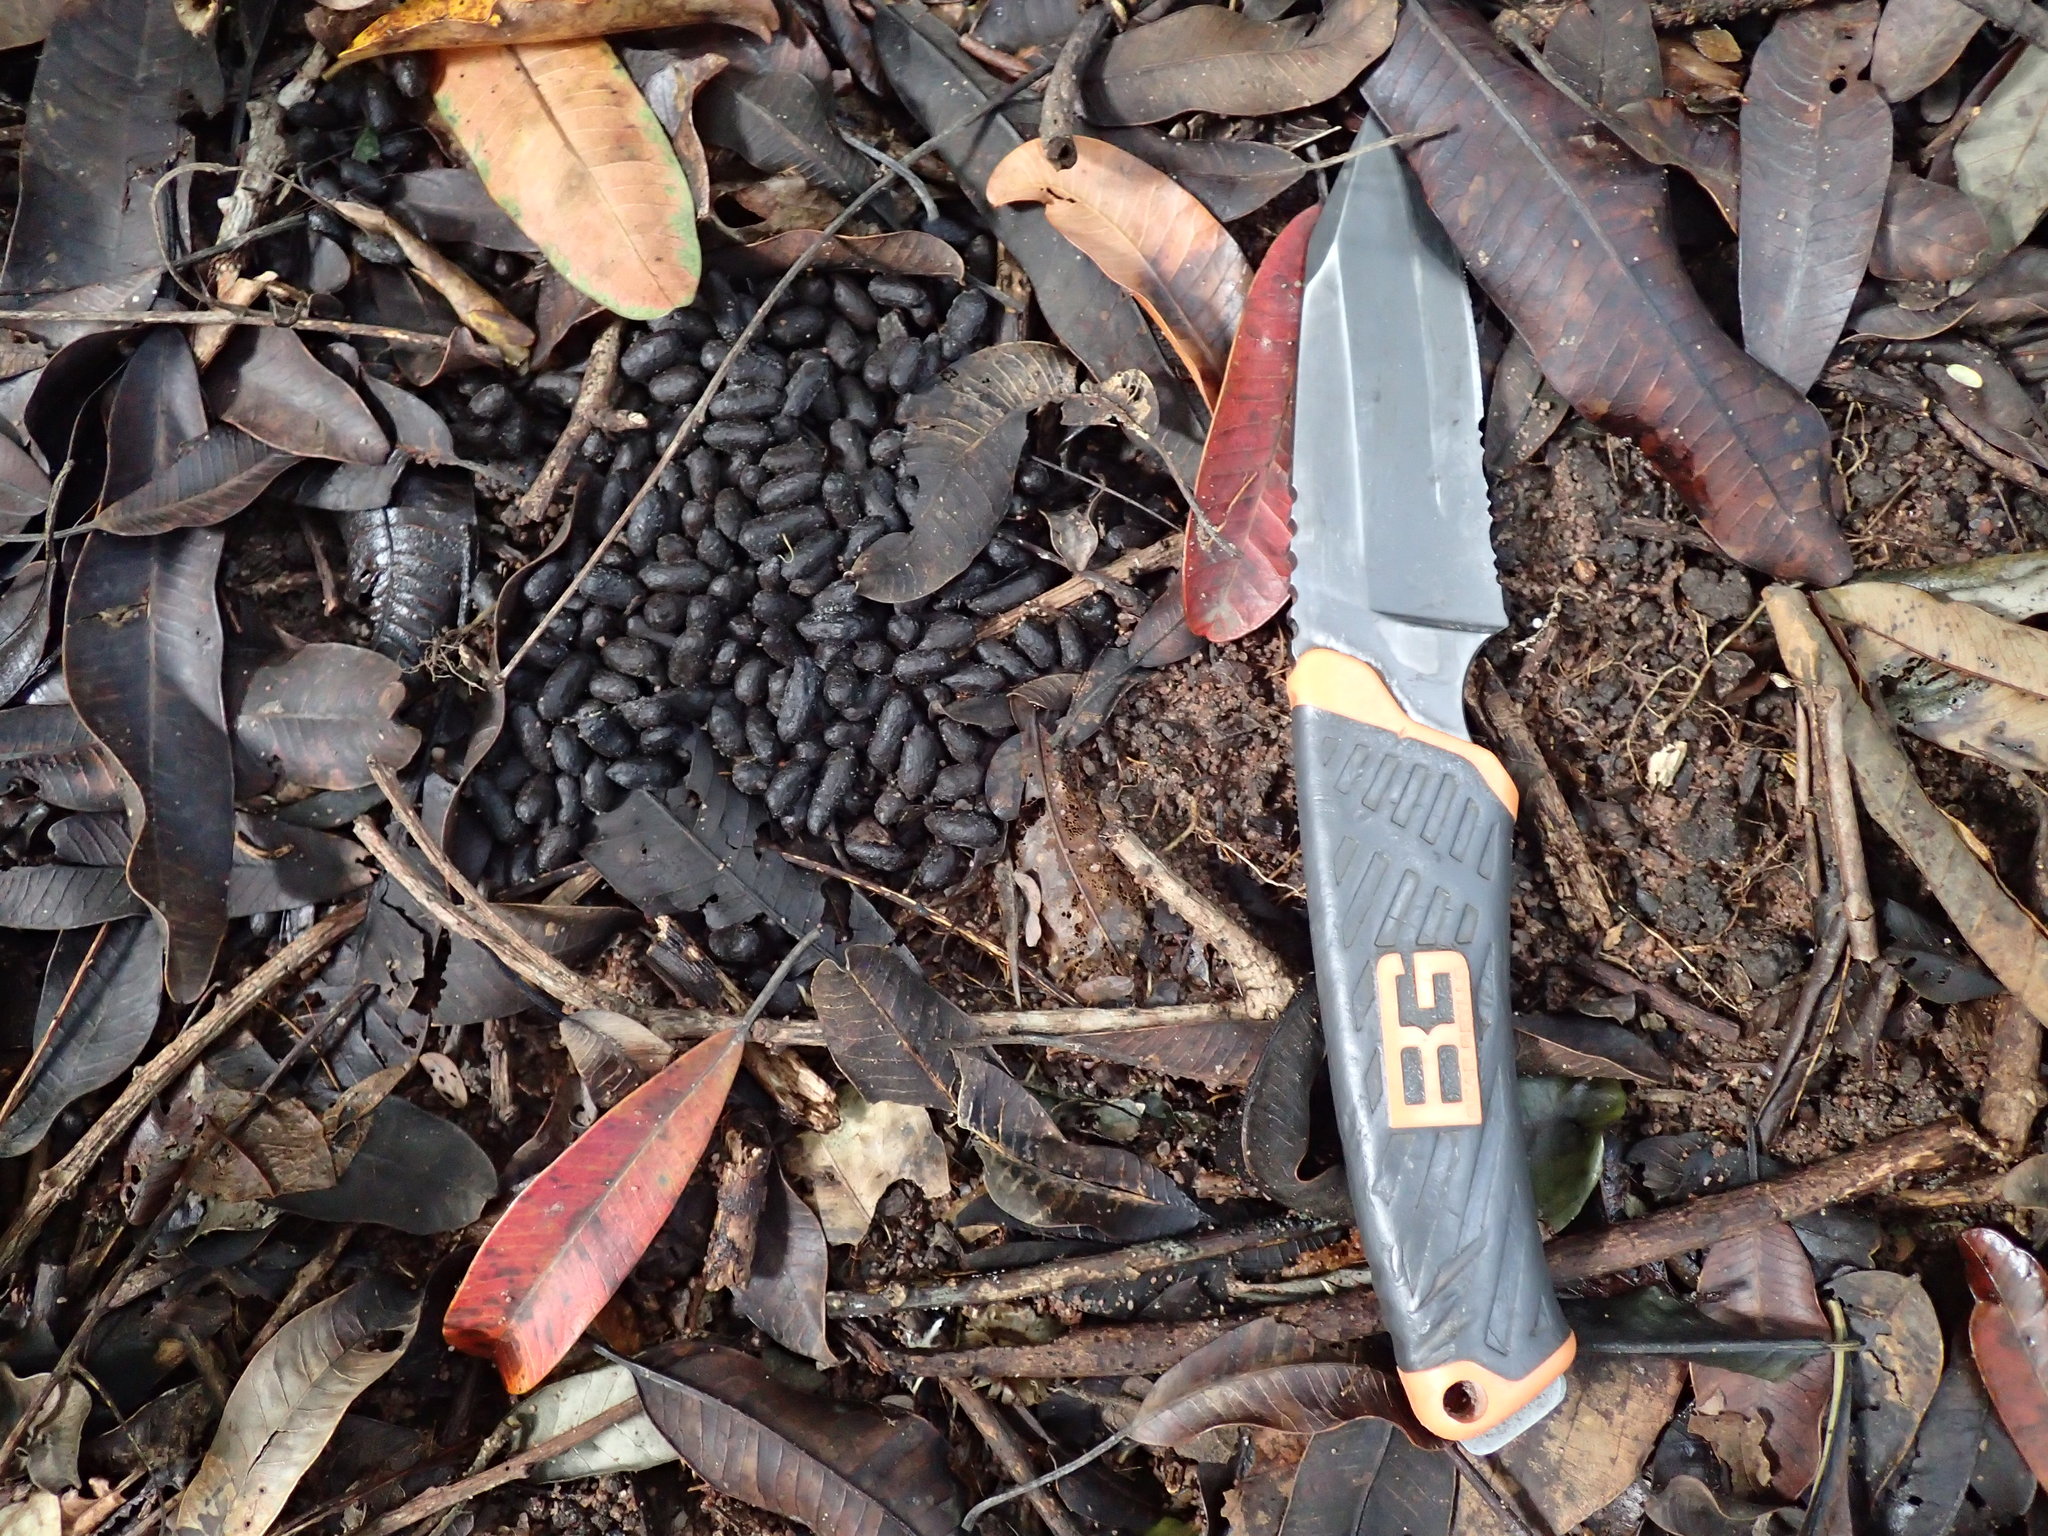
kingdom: Animalia
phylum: Chordata
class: Mammalia
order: Artiodactyla
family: Bovidae
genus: Philantomba
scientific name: Philantomba monticola
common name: Blue duiker
